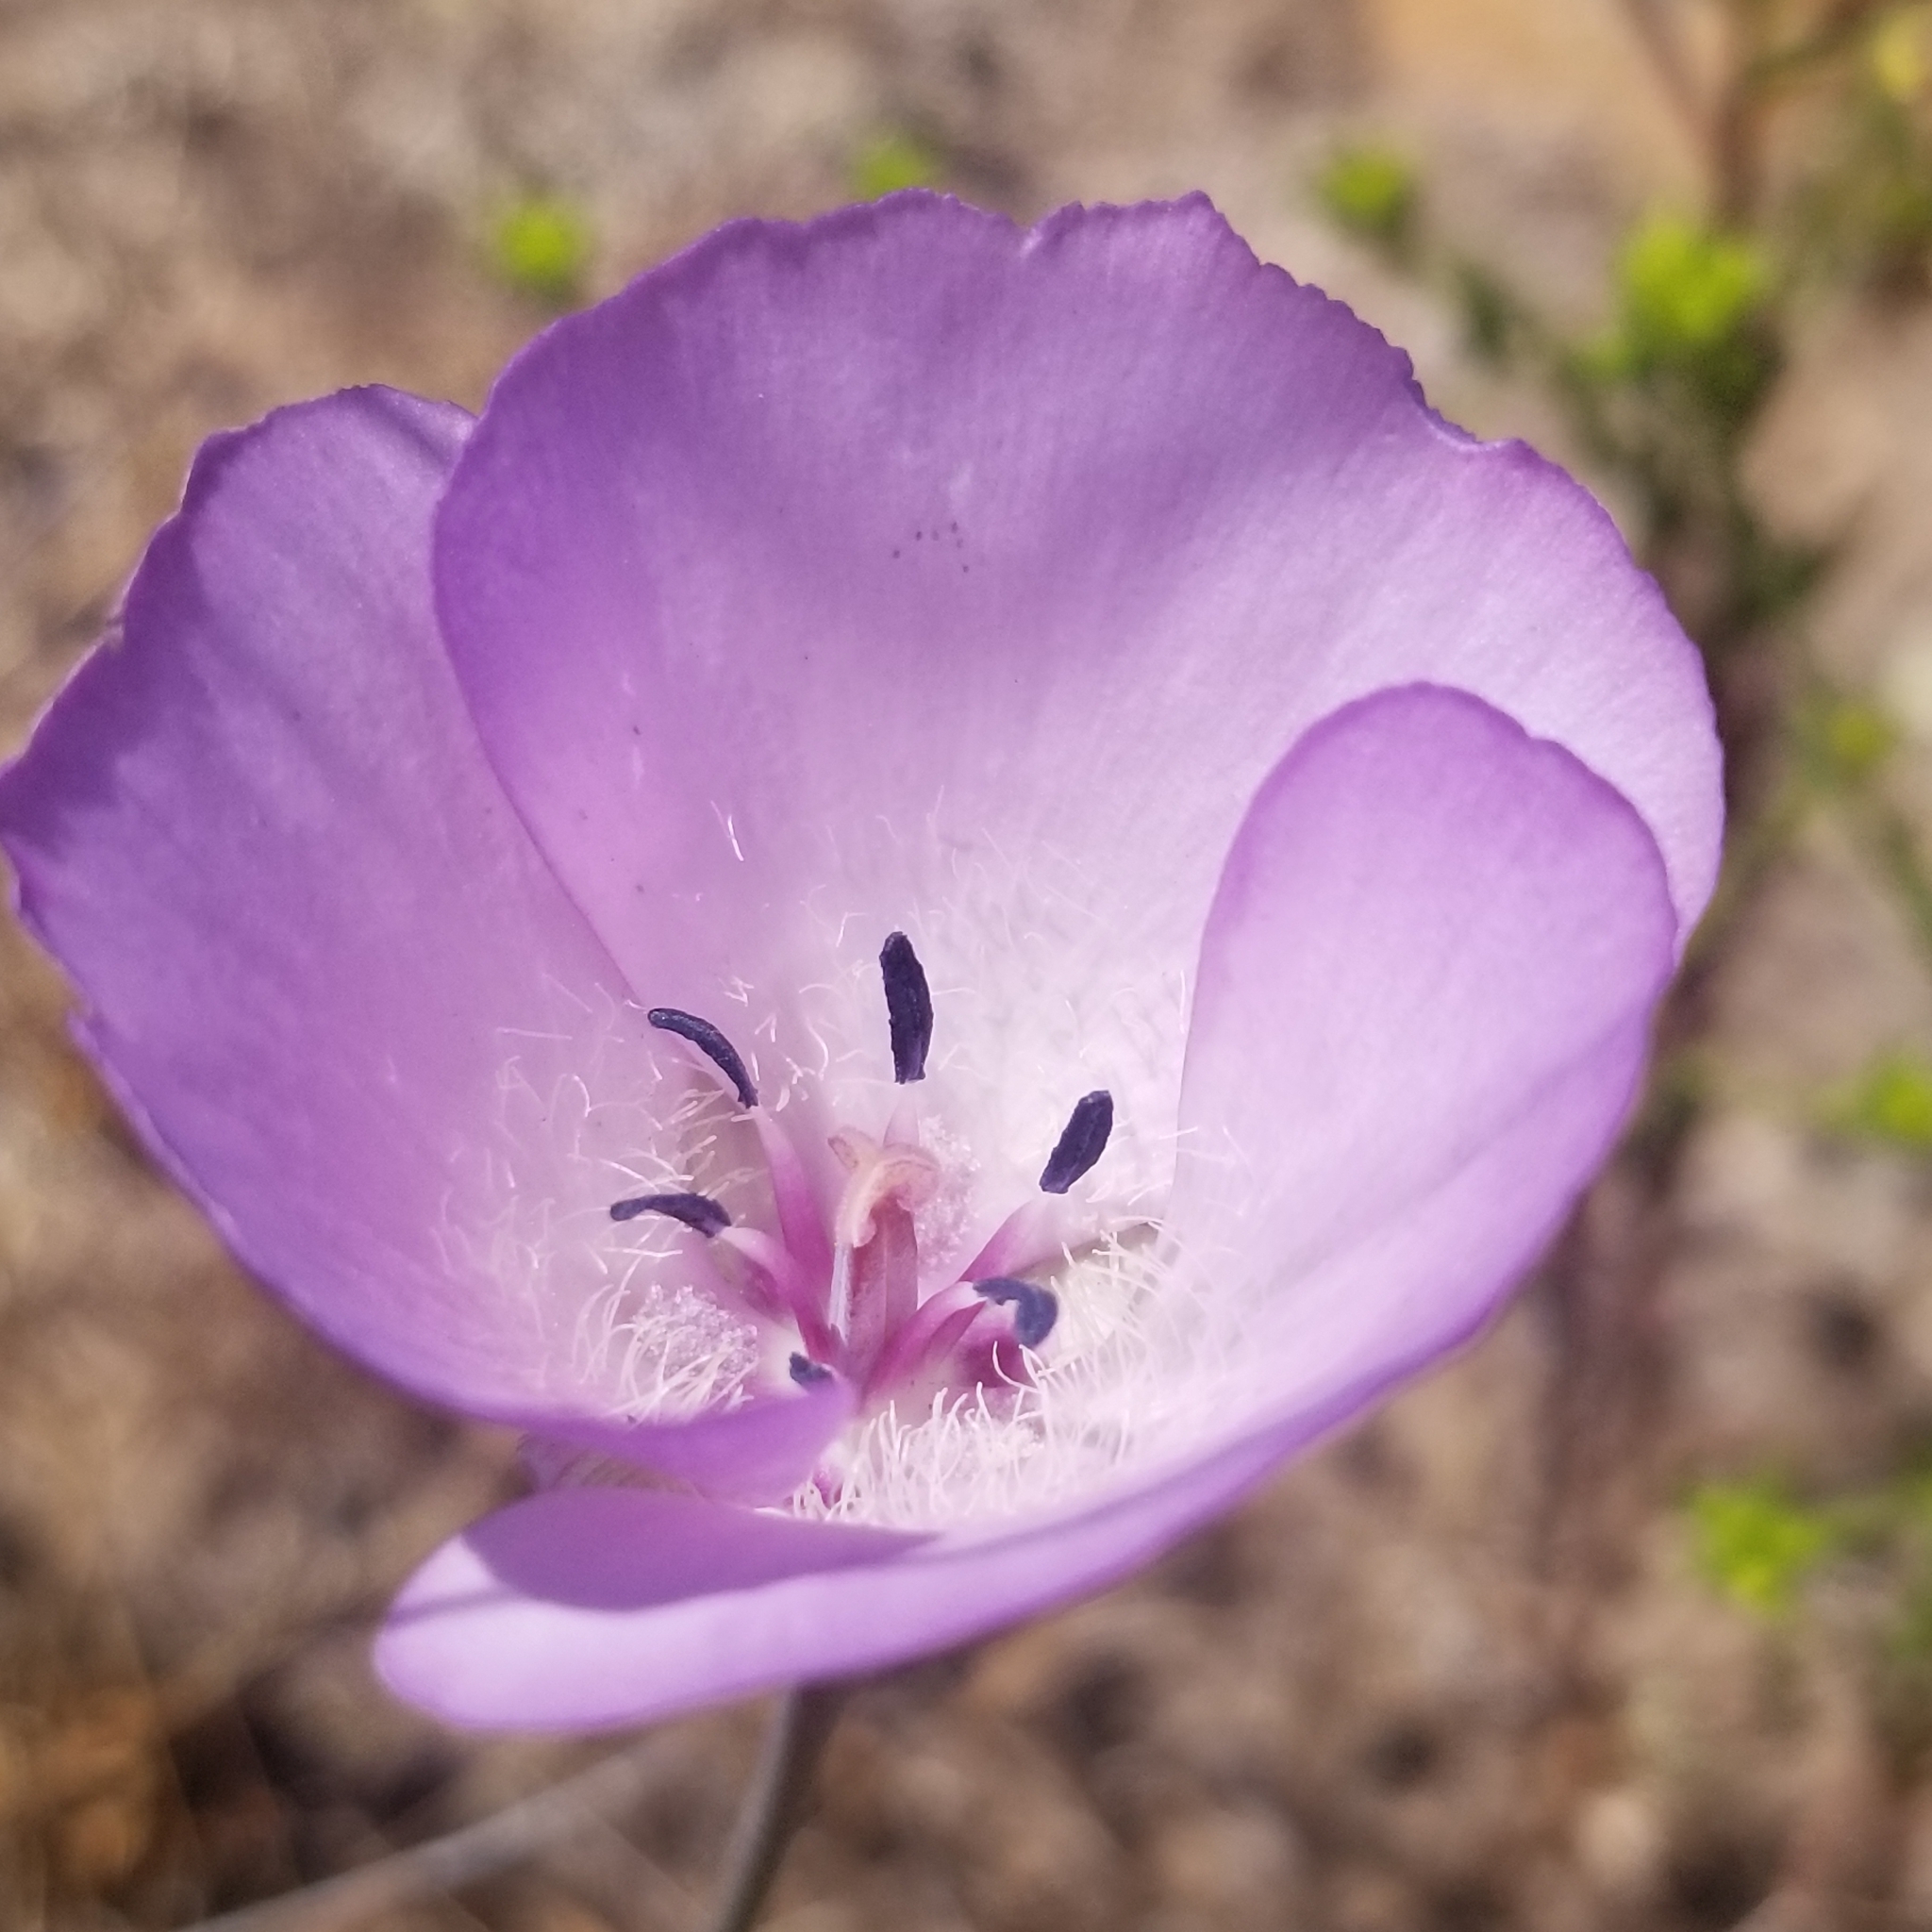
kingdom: Plantae
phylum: Tracheophyta
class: Liliopsida
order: Liliales
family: Liliaceae
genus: Calochortus
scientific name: Calochortus splendens
